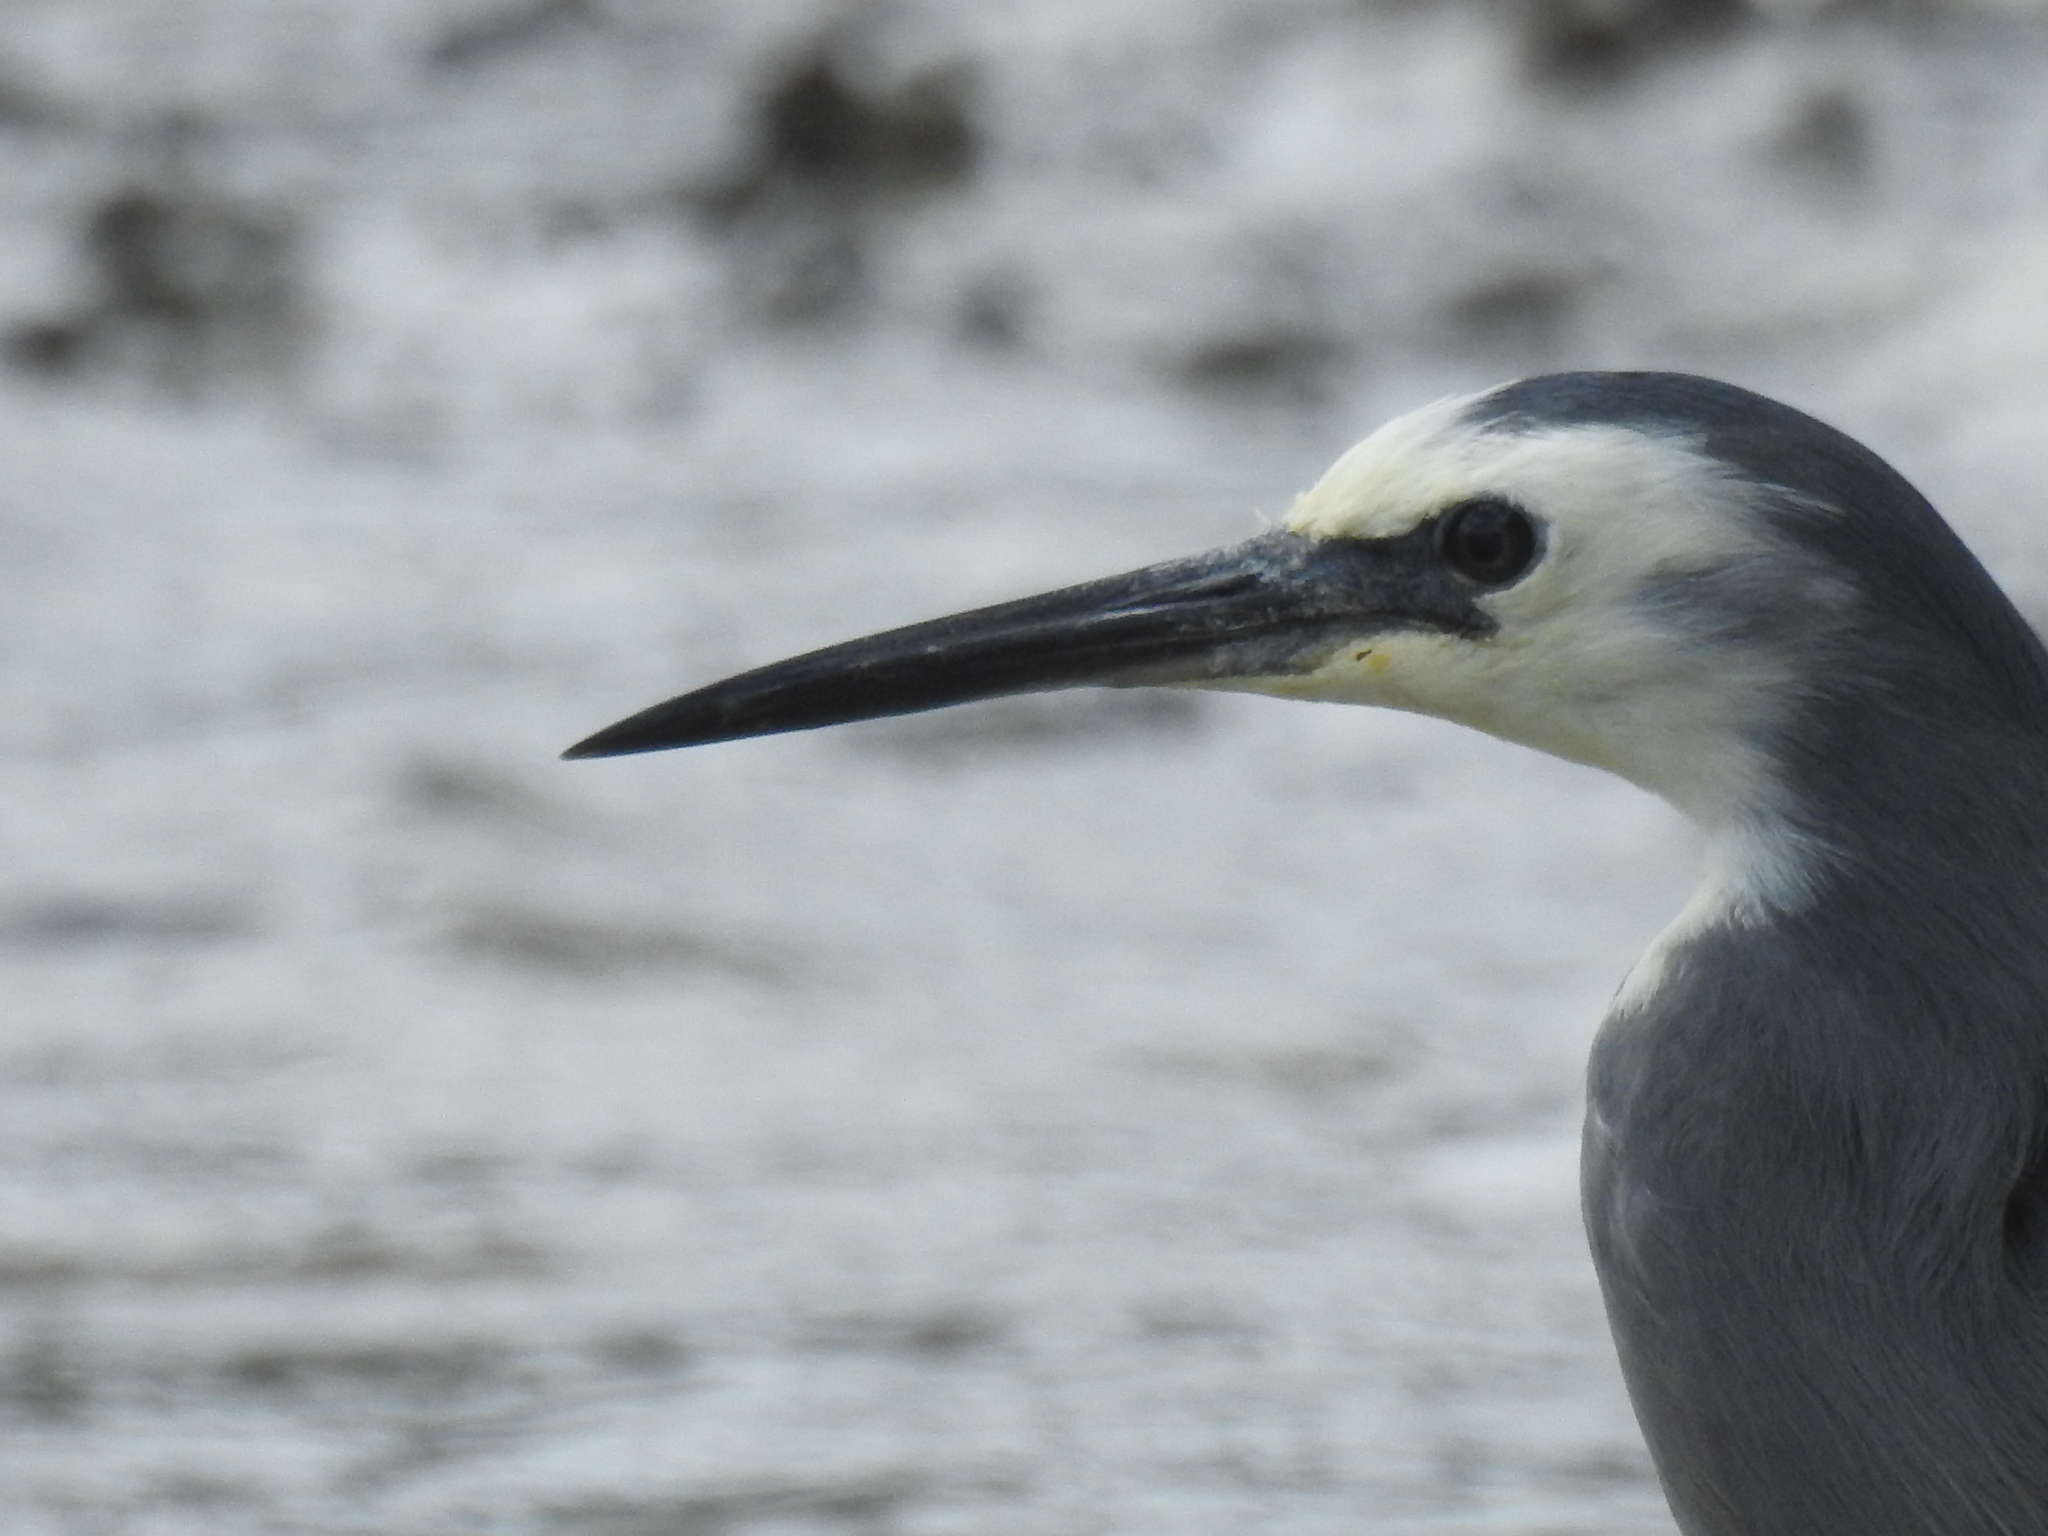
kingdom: Animalia
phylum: Chordata
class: Aves
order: Pelecaniformes
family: Ardeidae
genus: Egretta
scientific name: Egretta novaehollandiae
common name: White-faced heron
